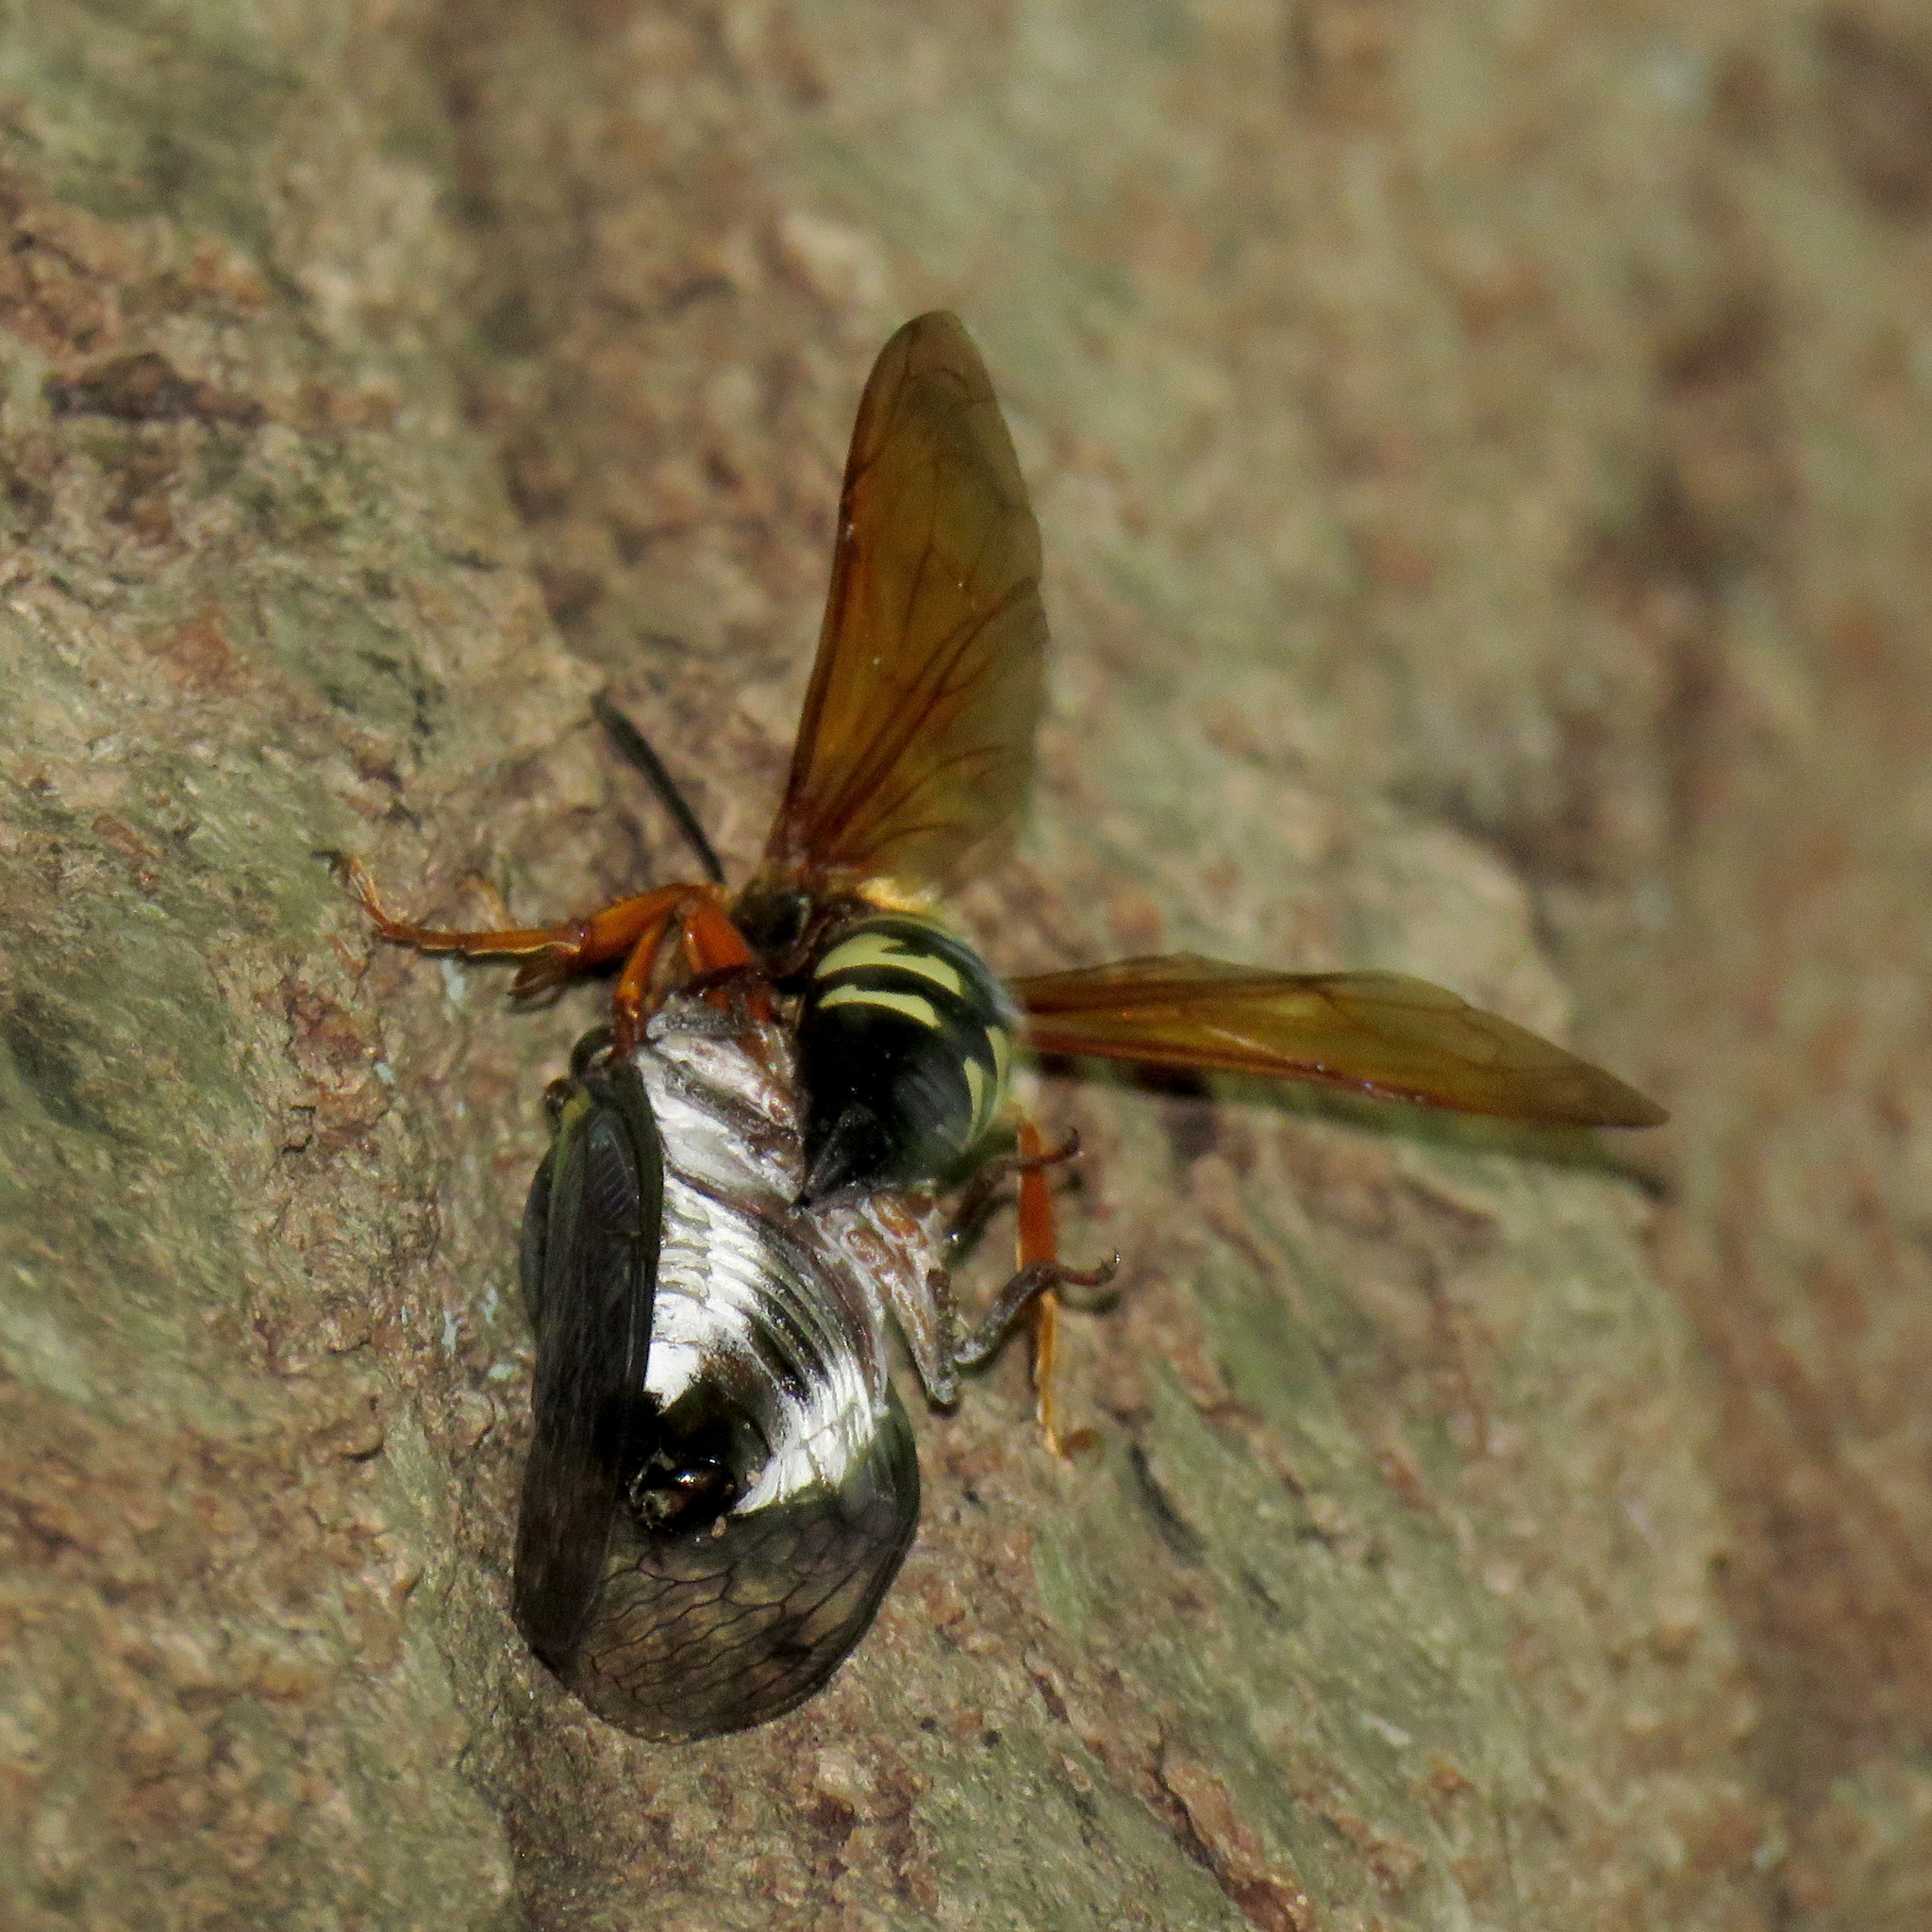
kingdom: Animalia
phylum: Arthropoda
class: Insecta
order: Hymenoptera
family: Crabronidae
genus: Sphecius
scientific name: Sphecius speciosus
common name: Cicada killer
